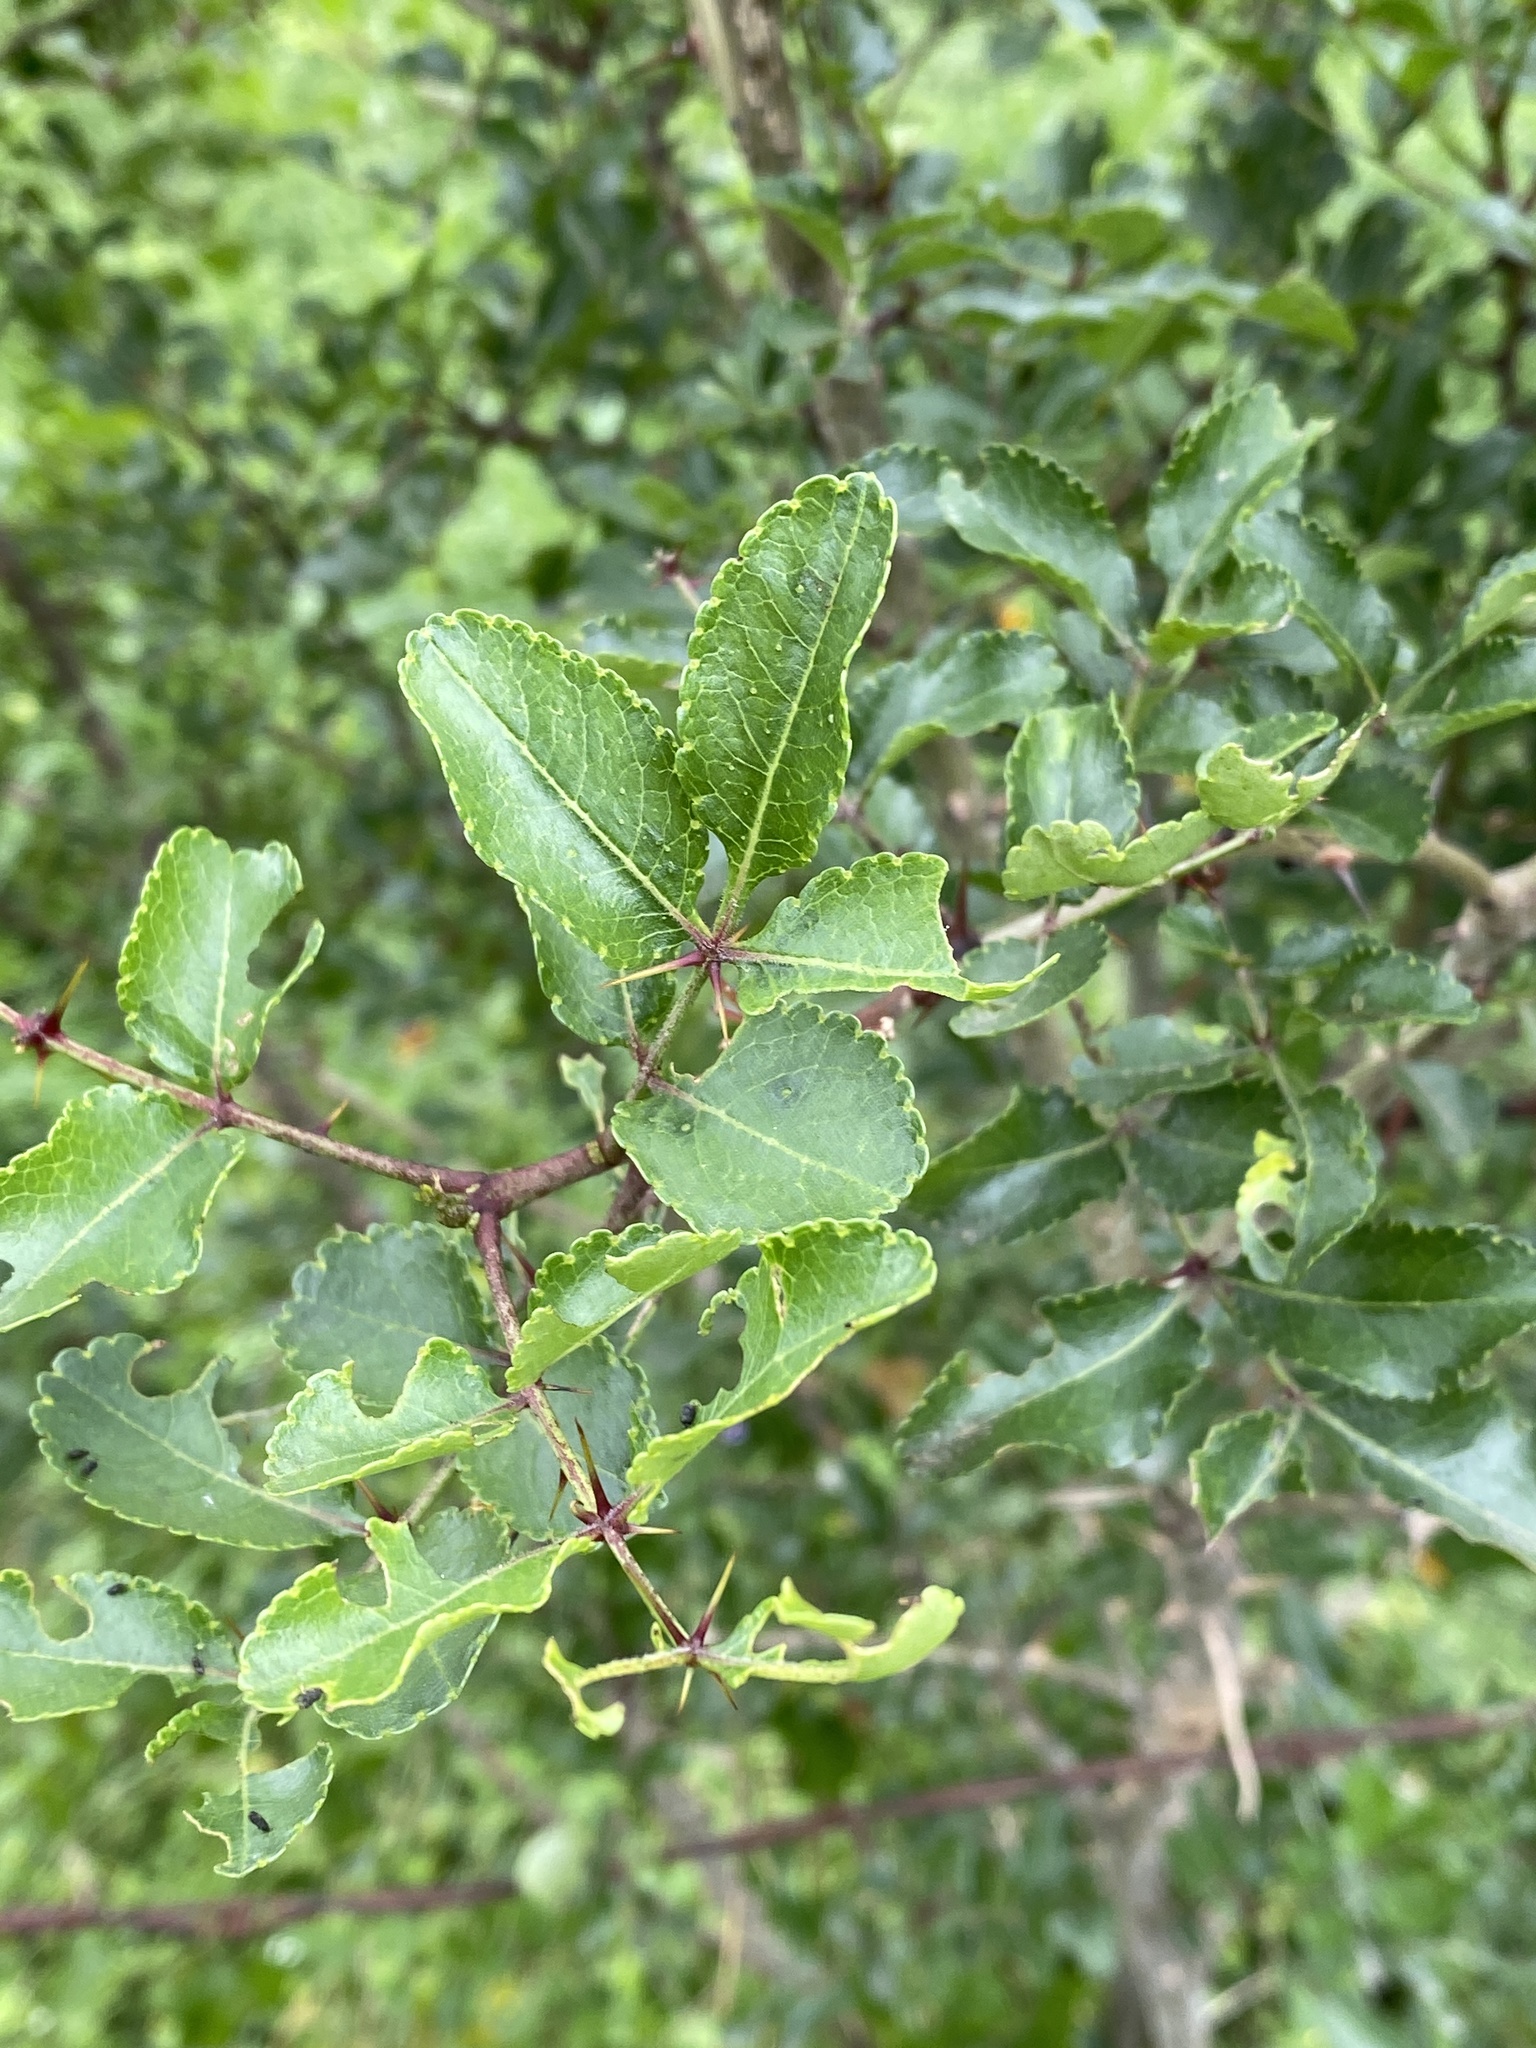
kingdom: Plantae
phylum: Tracheophyta
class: Magnoliopsida
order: Sapindales
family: Rutaceae
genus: Zanthoxylum
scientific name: Zanthoxylum clava-herculis
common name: Hercules'-club
